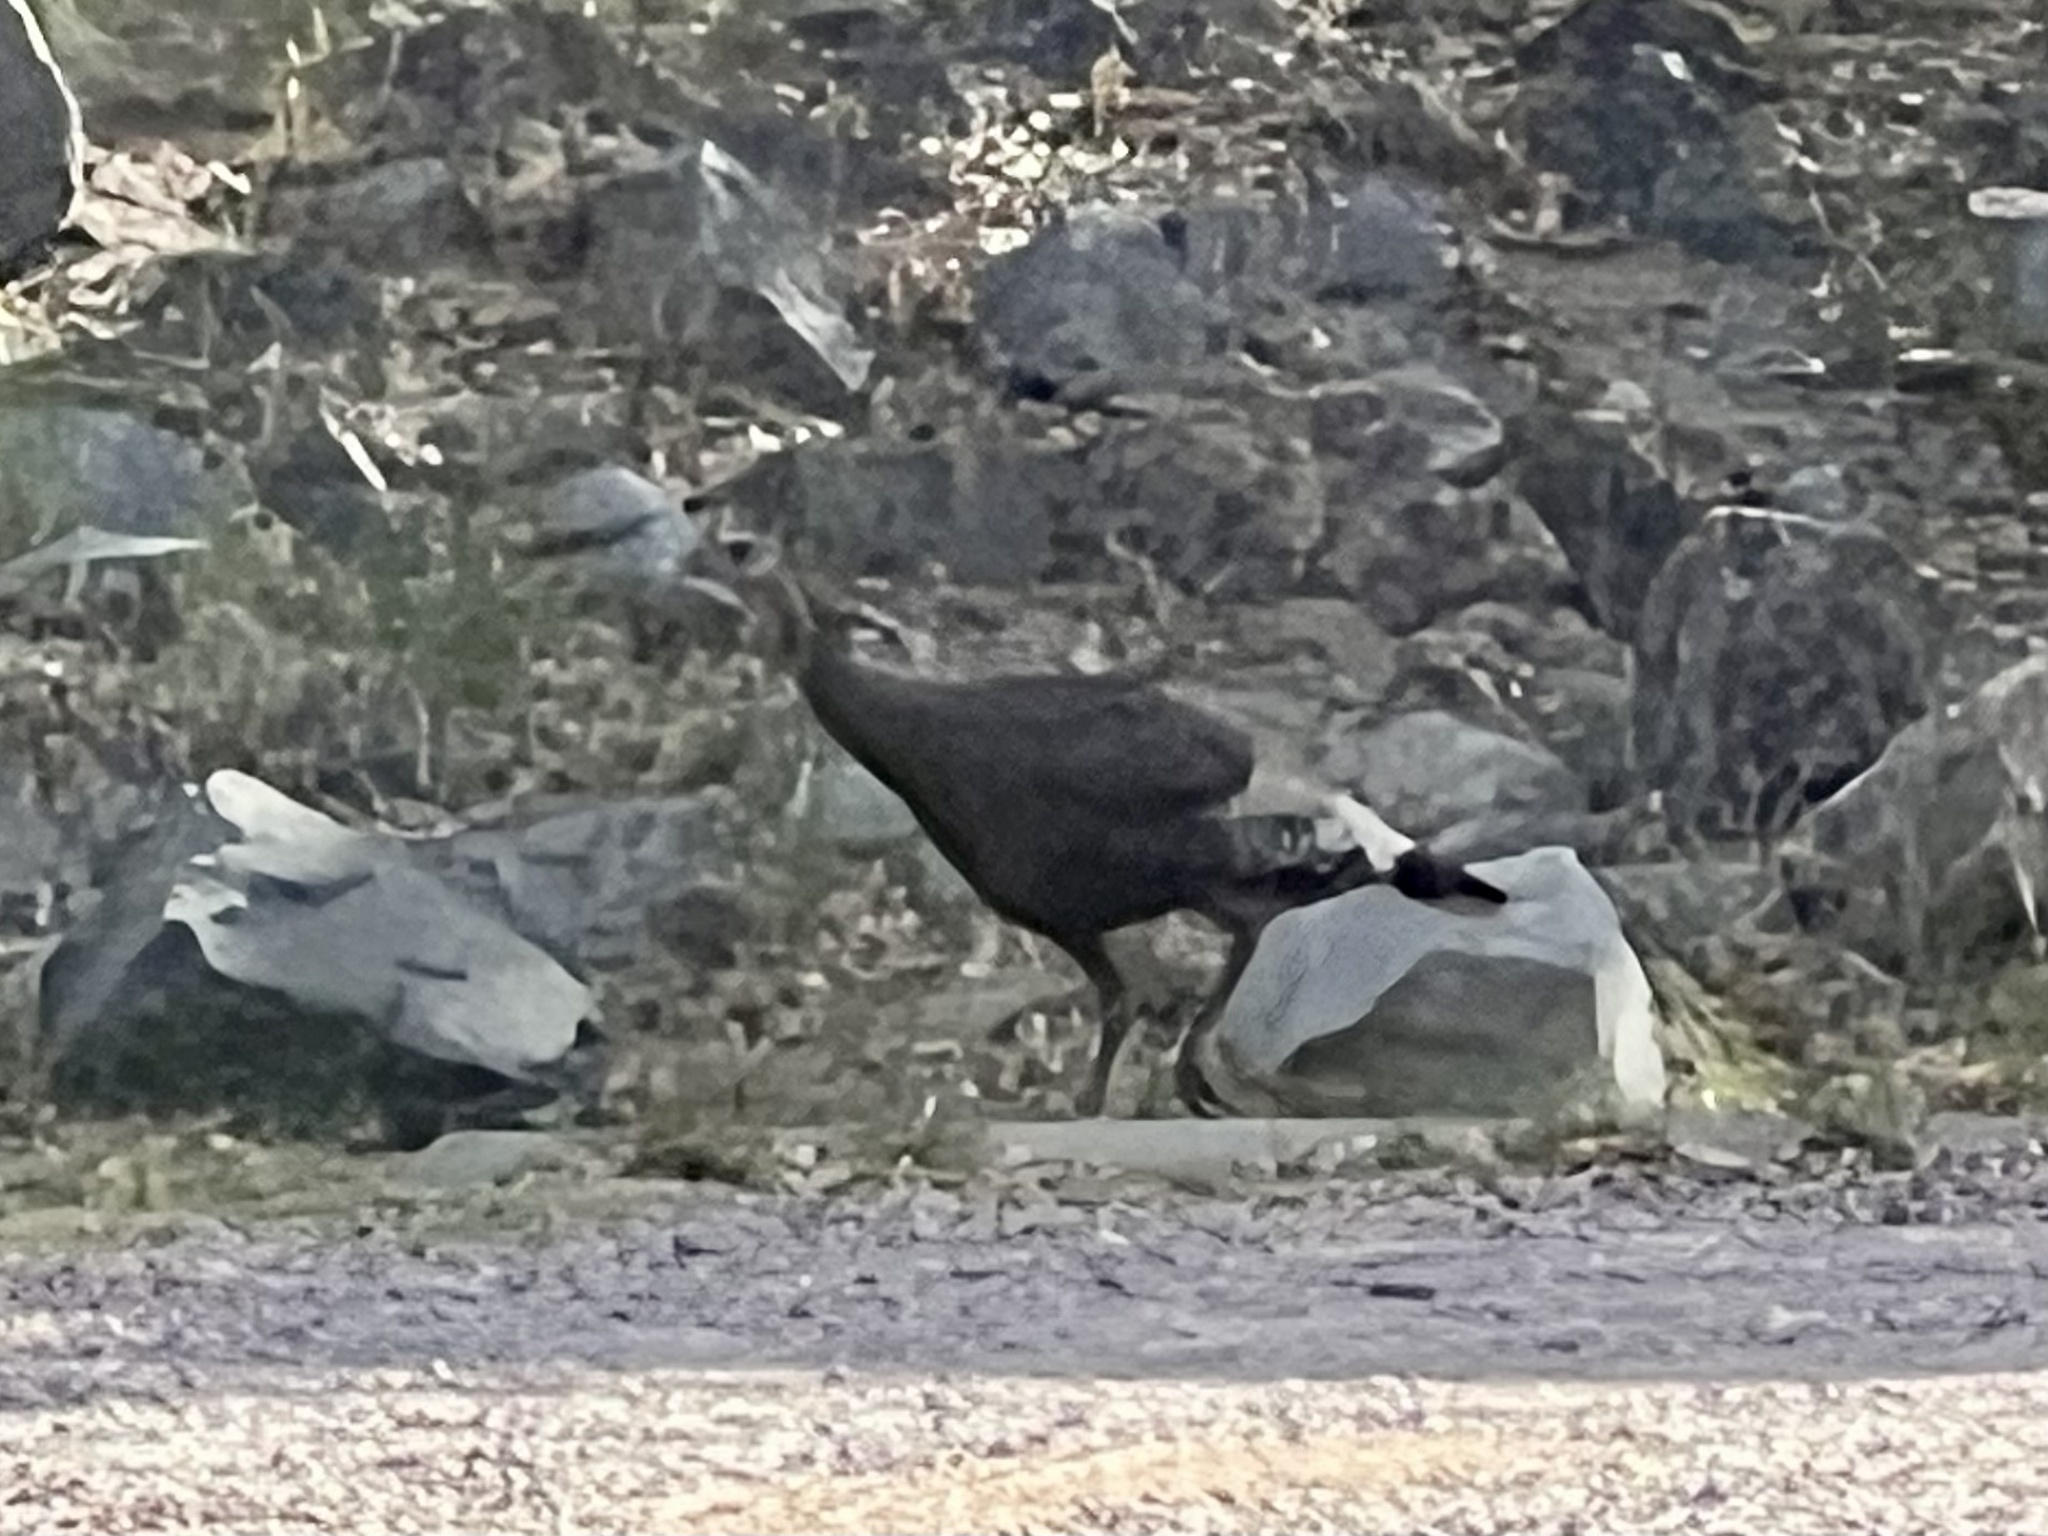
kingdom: Animalia
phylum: Chordata
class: Aves
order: Galliformes
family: Phasianidae
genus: Meleagris
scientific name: Meleagris gallopavo
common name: Wild turkey
